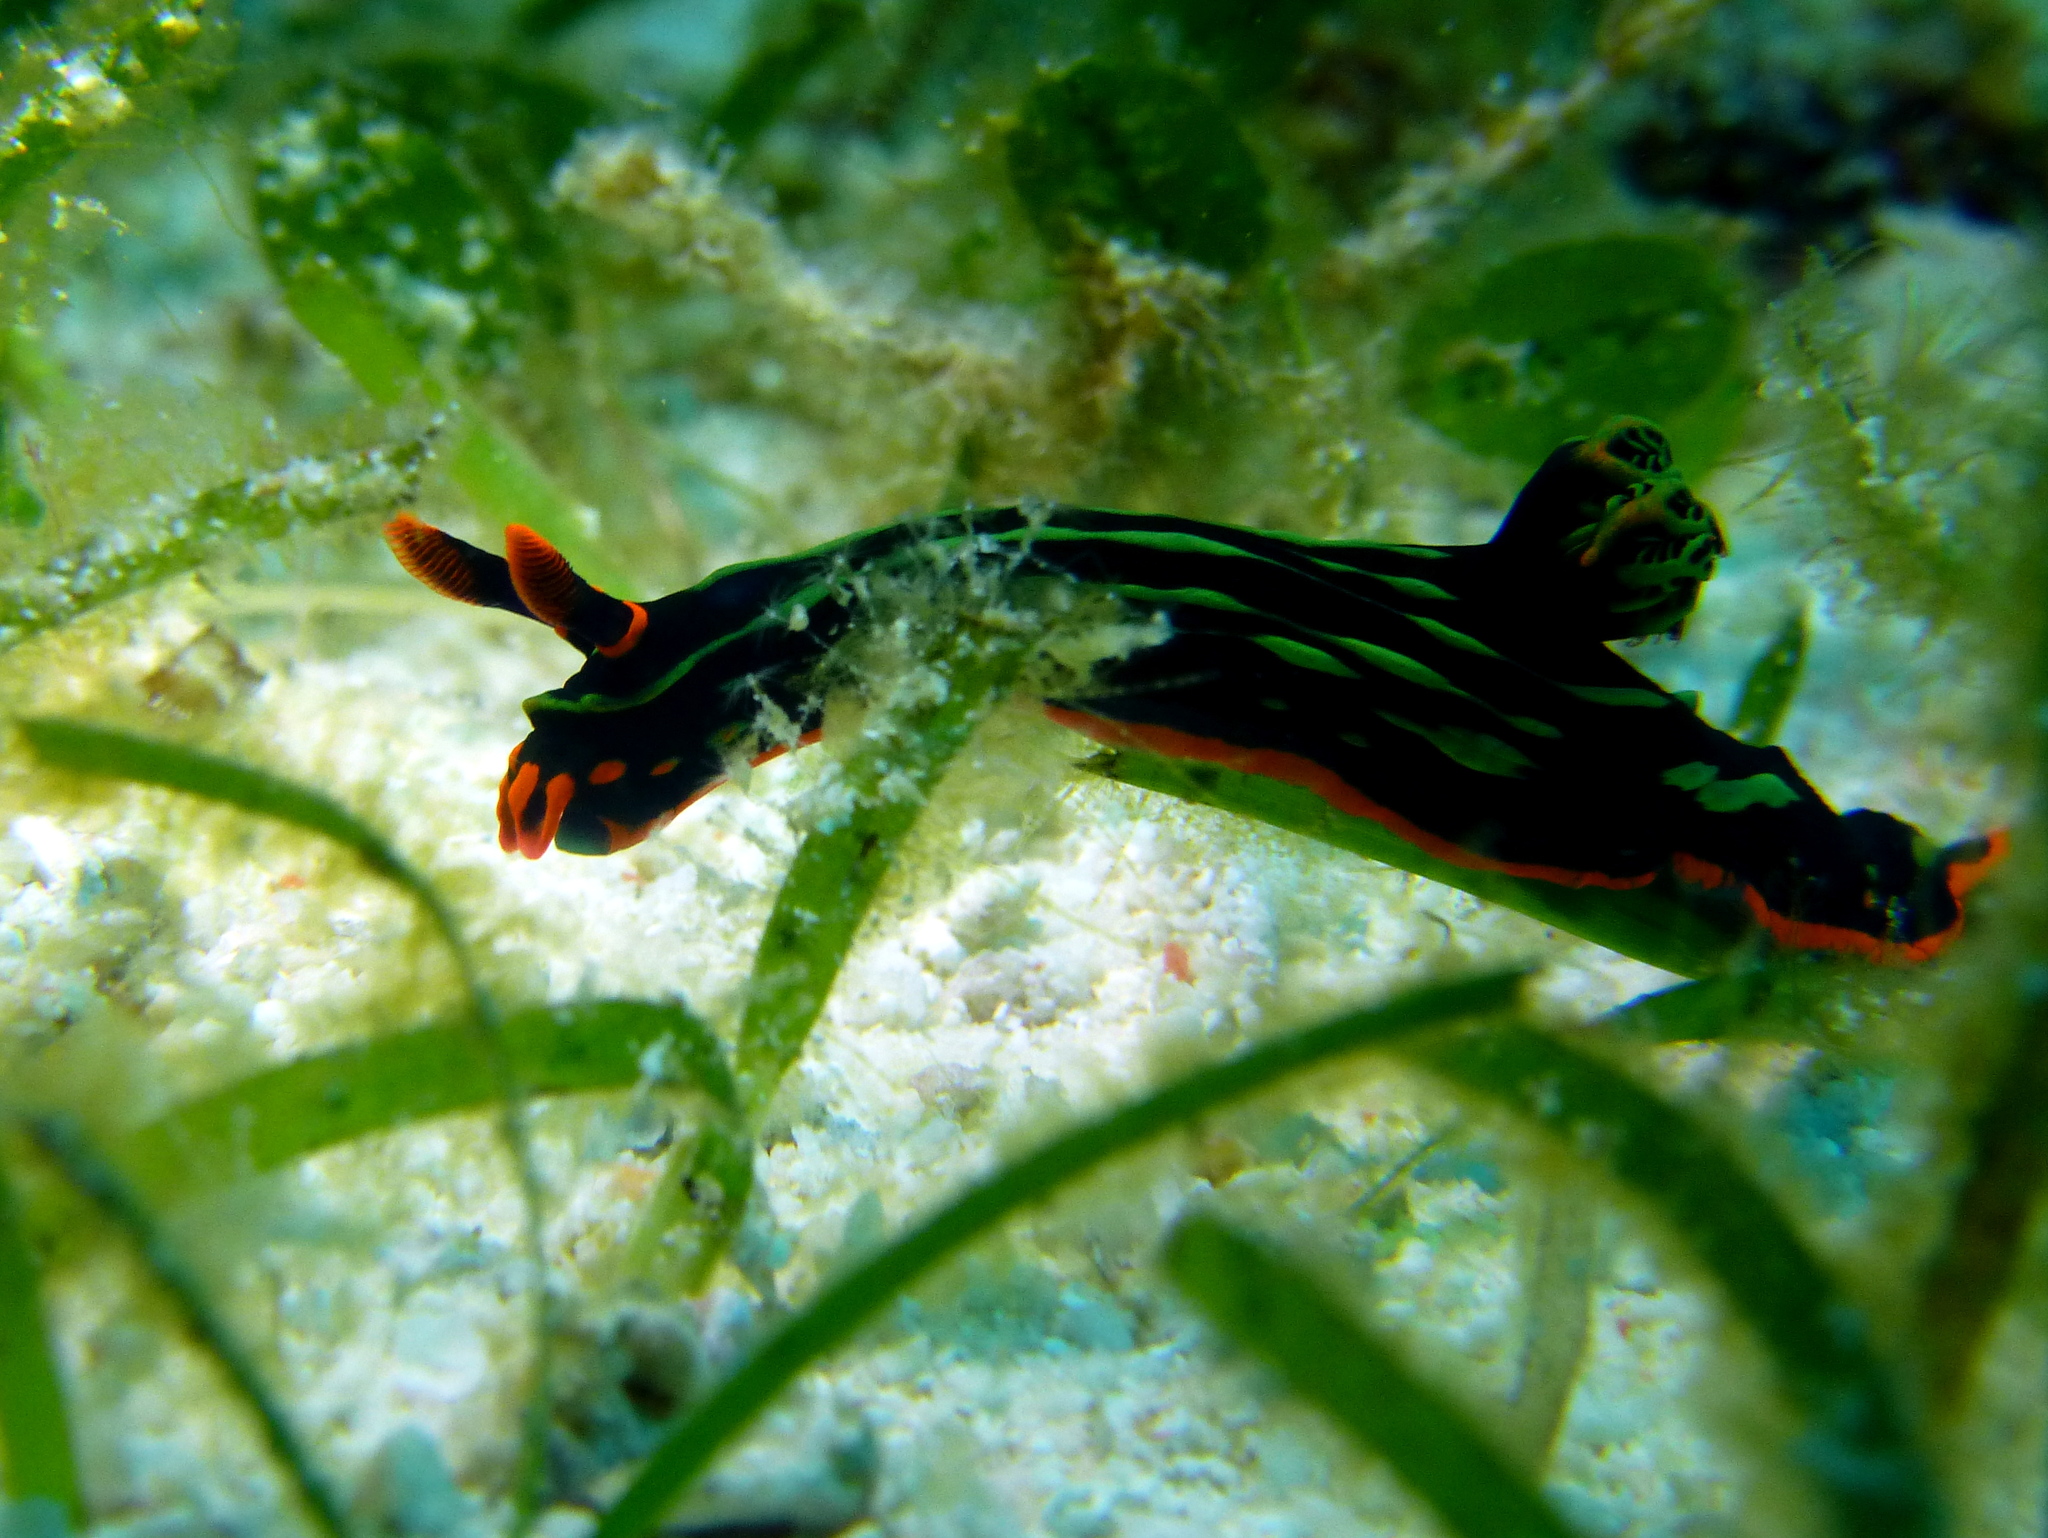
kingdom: Animalia
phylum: Mollusca
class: Gastropoda
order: Nudibranchia
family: Polyceridae
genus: Nembrotha
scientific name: Nembrotha kubaryana
